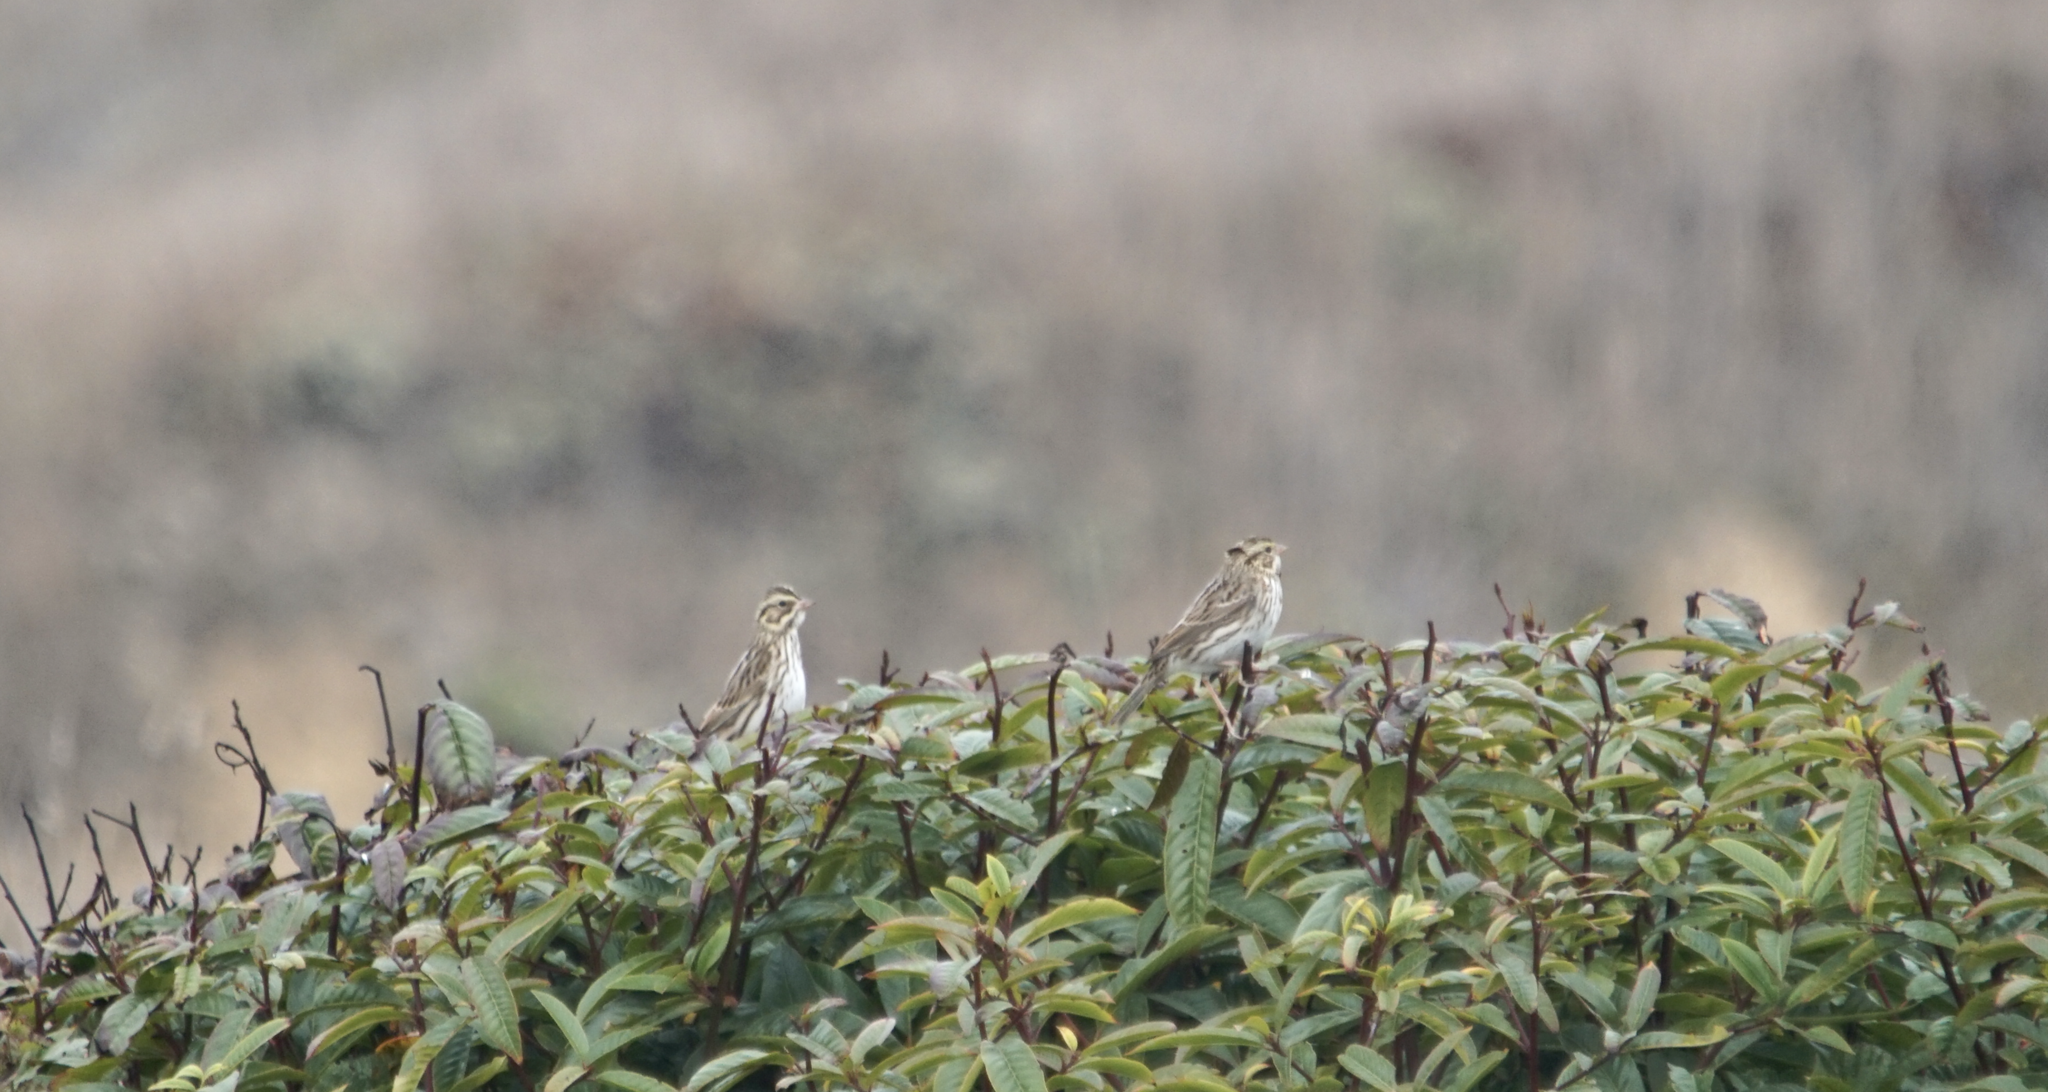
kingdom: Animalia
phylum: Chordata
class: Aves
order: Passeriformes
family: Passerellidae
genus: Passerculus
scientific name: Passerculus sandwichensis
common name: Savannah sparrow
